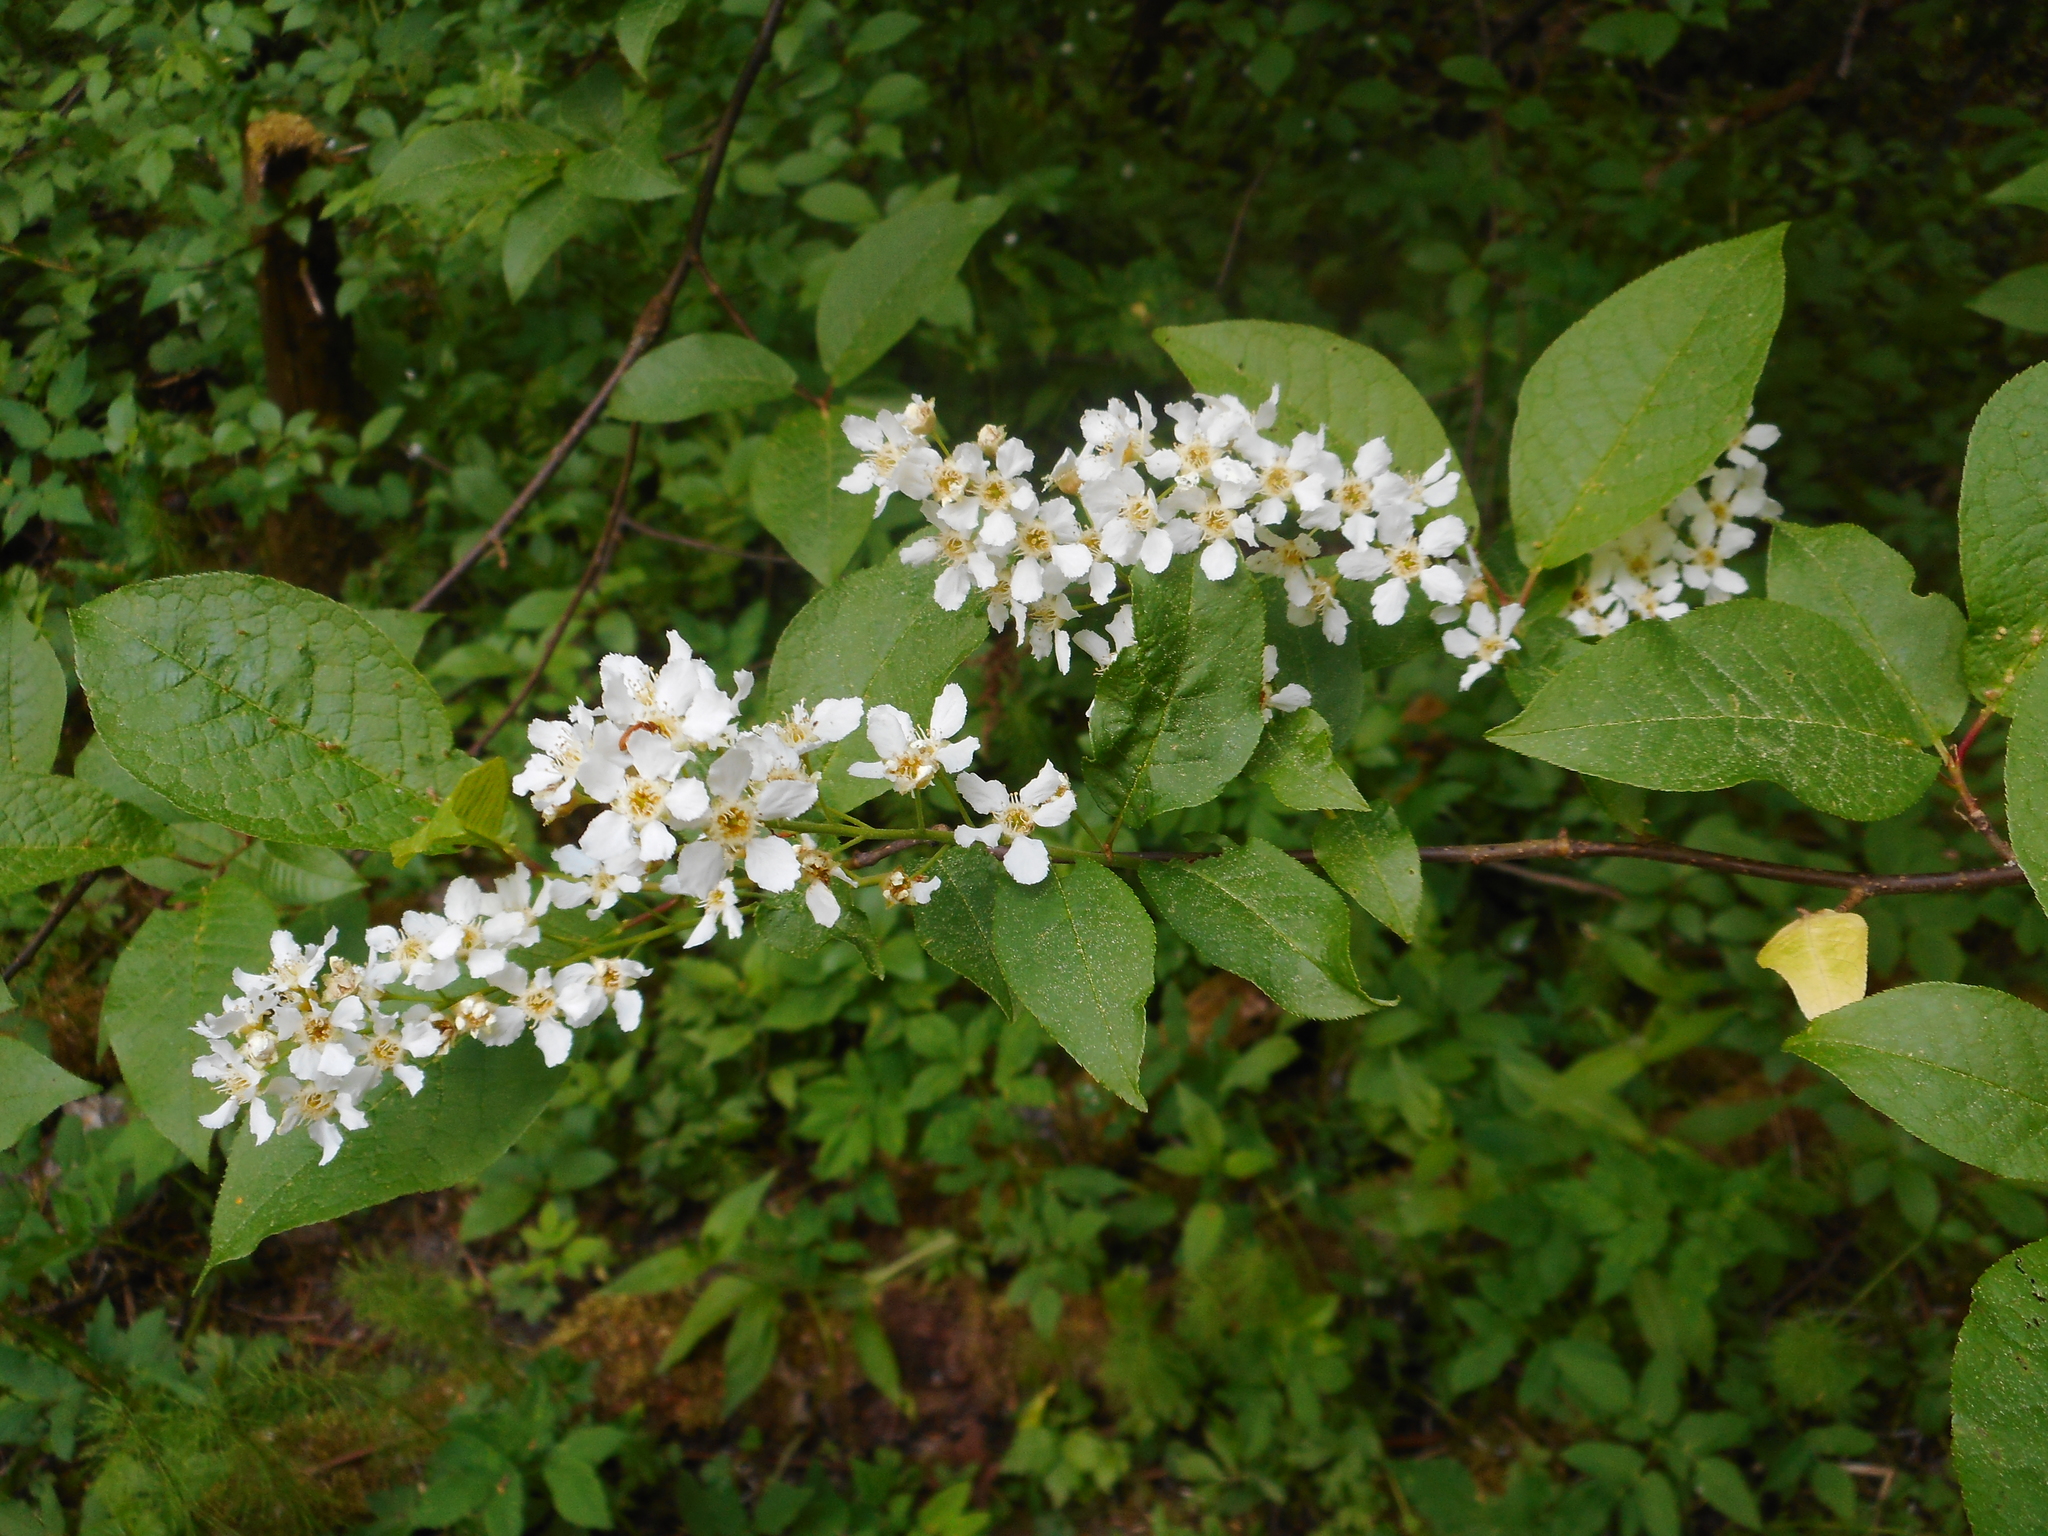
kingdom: Plantae
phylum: Tracheophyta
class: Magnoliopsida
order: Rosales
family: Rosaceae
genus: Prunus
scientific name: Prunus padus
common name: Bird cherry
